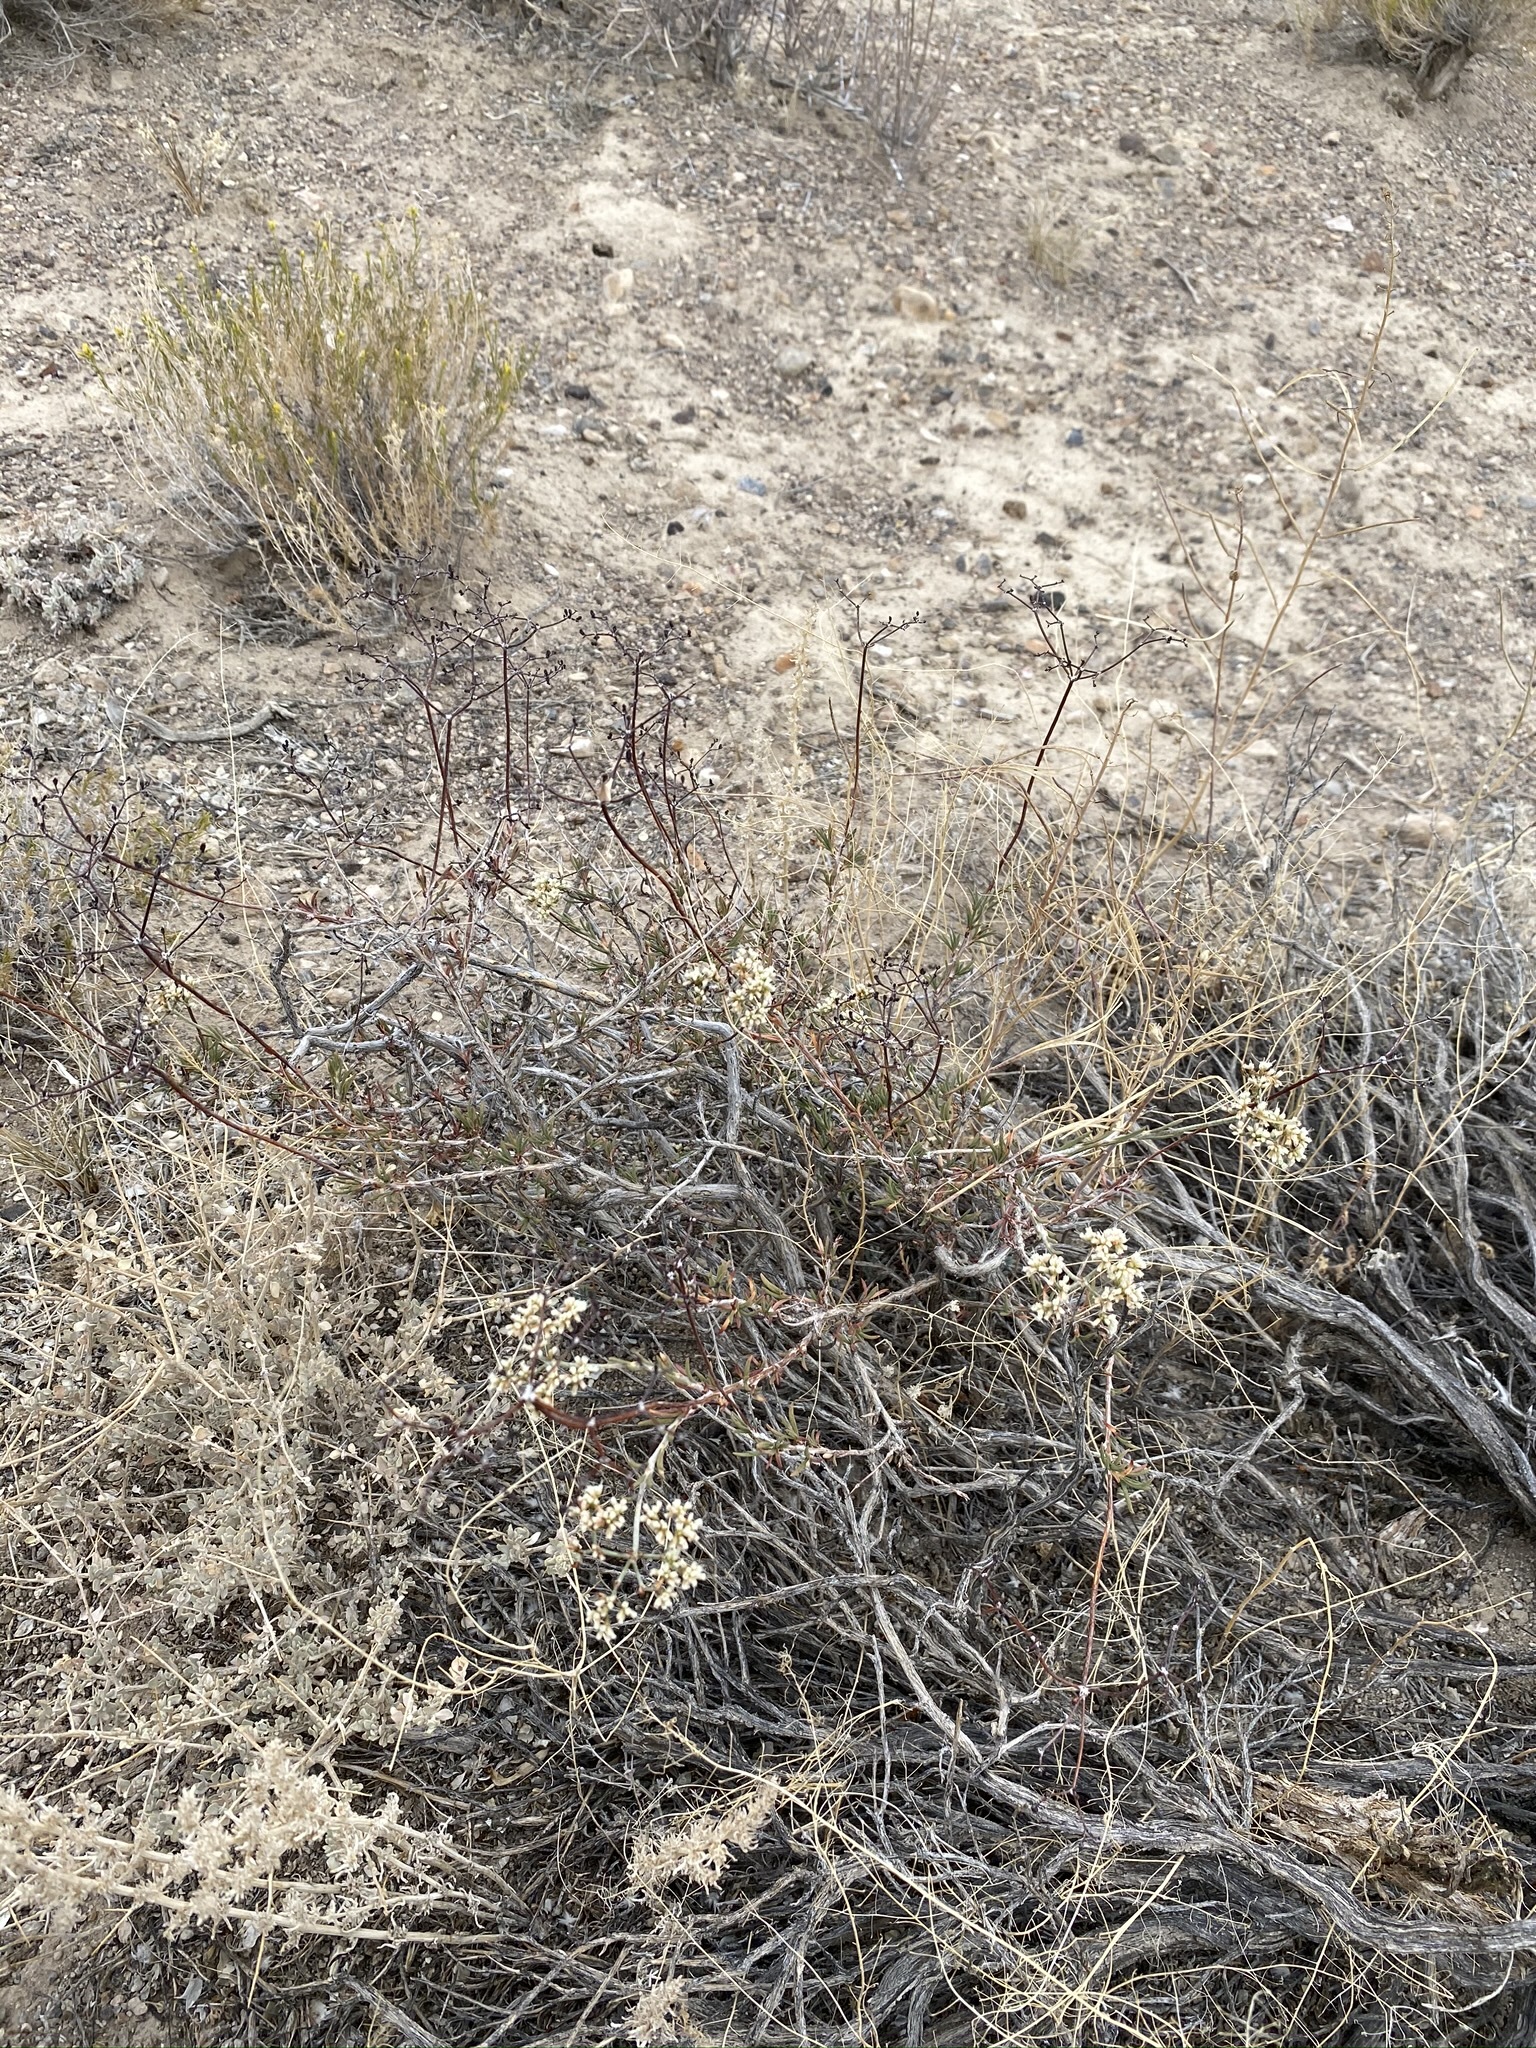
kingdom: Plantae
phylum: Tracheophyta
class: Magnoliopsida
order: Caryophyllales
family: Polygonaceae
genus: Eriogonum
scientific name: Eriogonum microtheca
